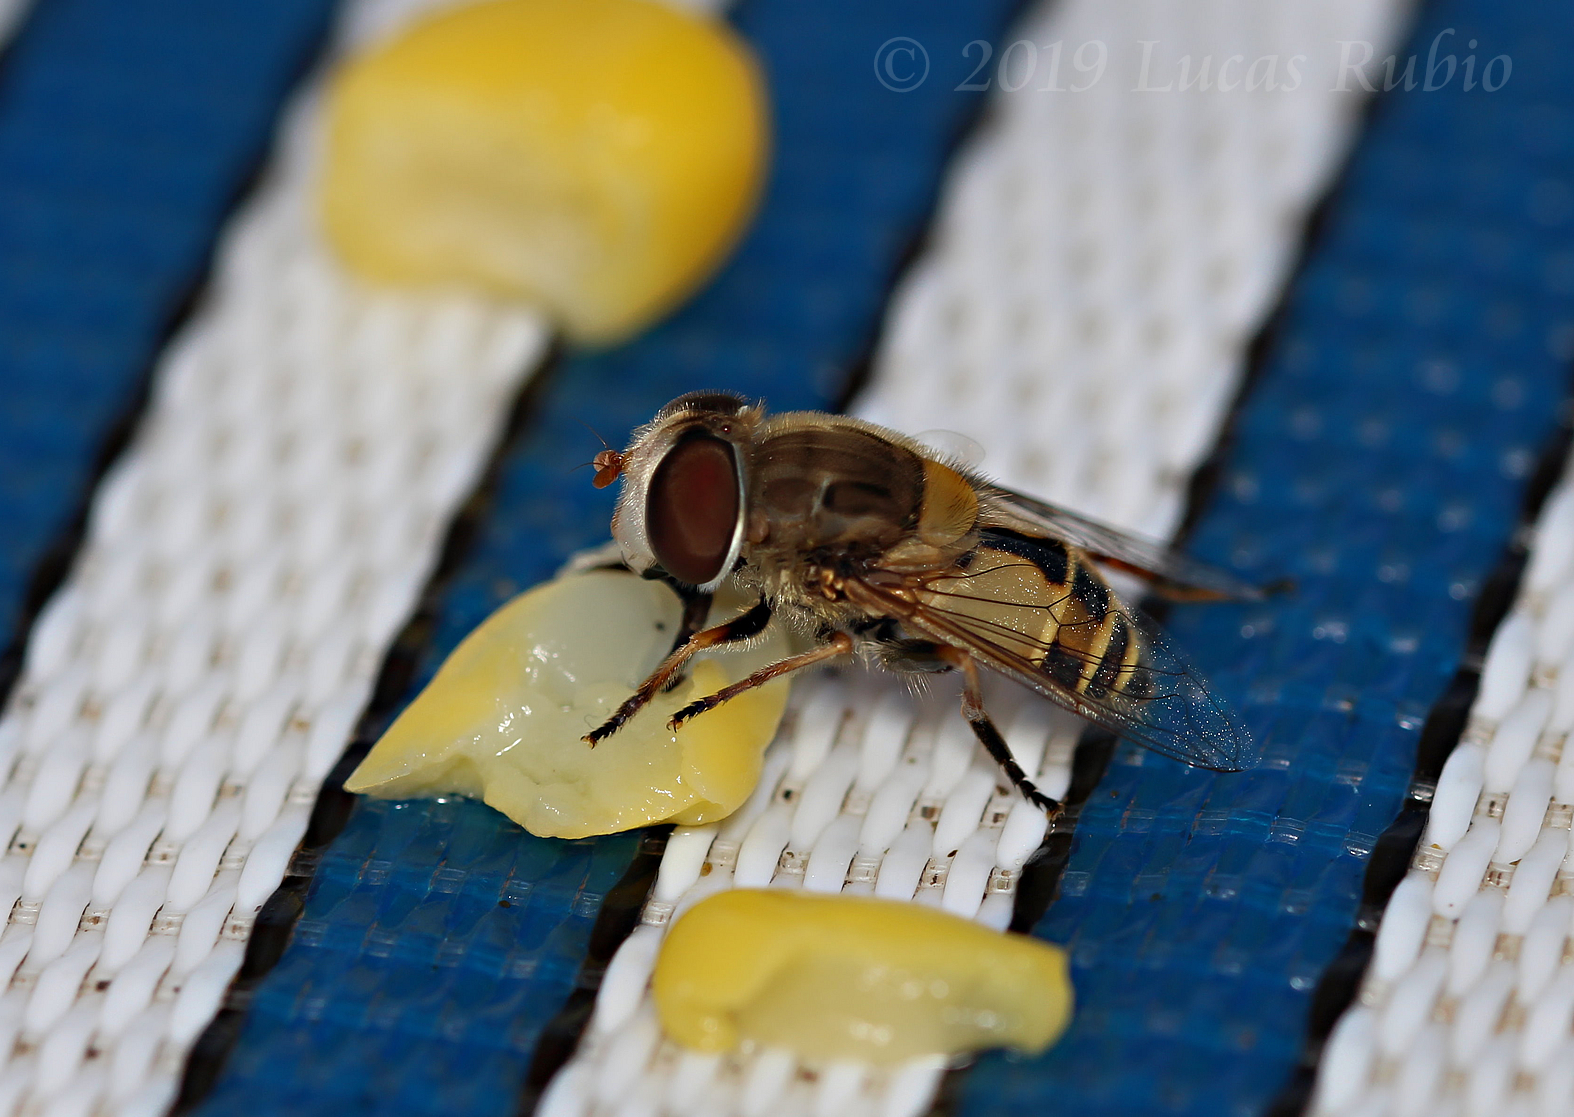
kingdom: Animalia
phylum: Arthropoda
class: Insecta
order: Diptera
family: Syrphidae
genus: Palpada
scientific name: Palpada
